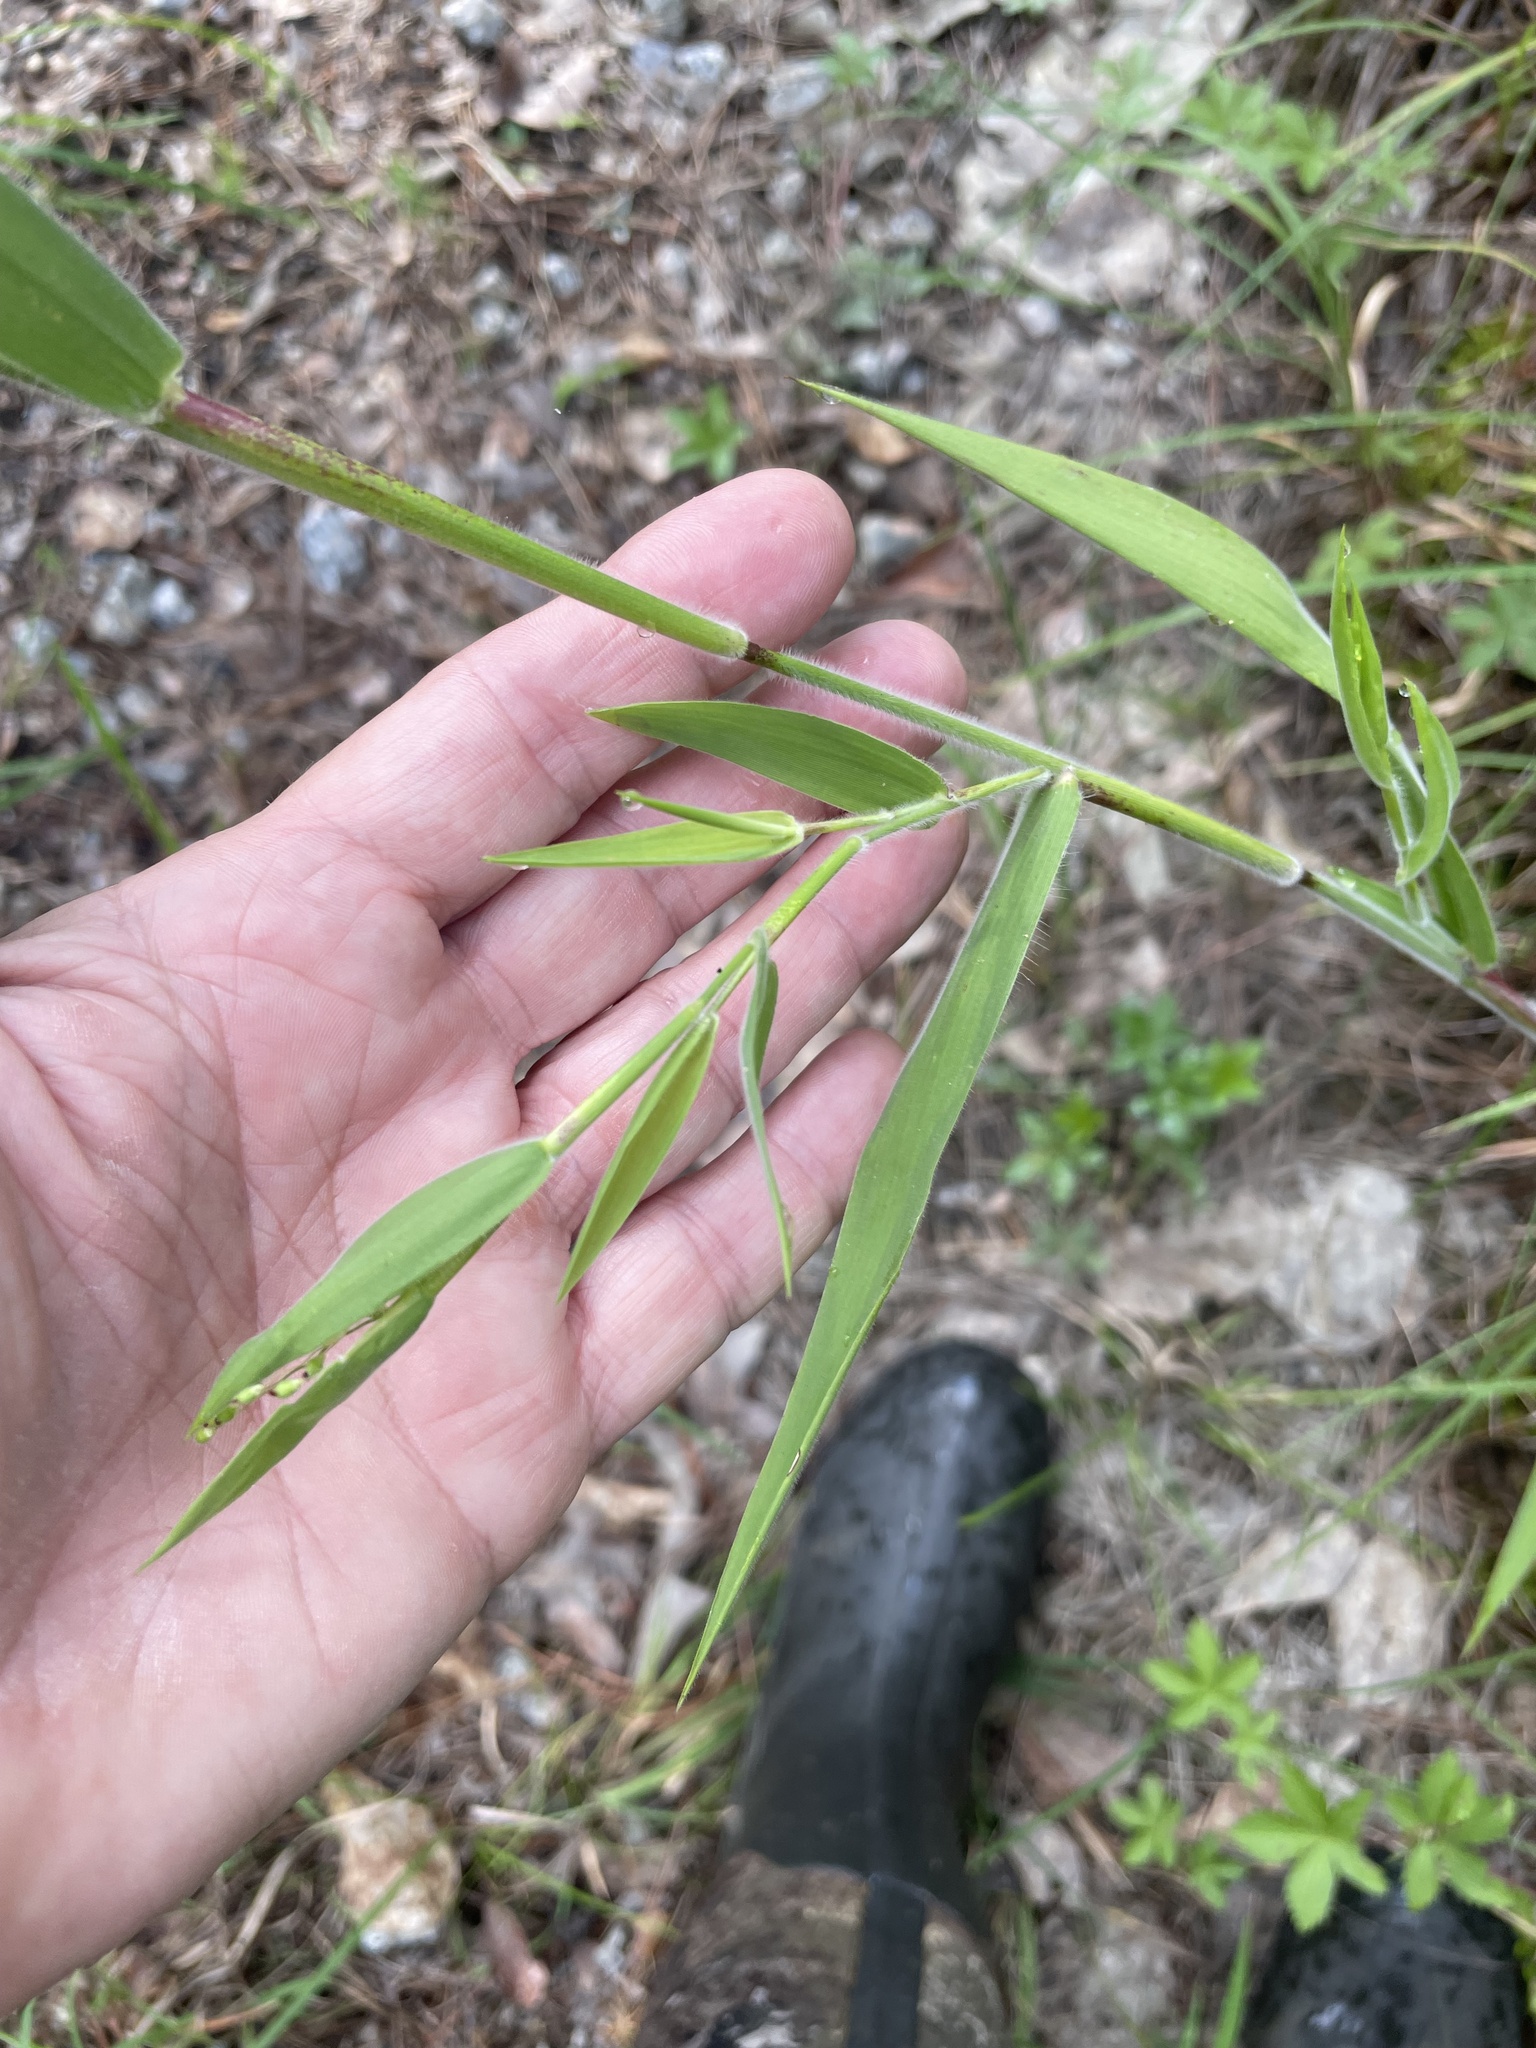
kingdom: Plantae
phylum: Tracheophyta
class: Liliopsida
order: Poales
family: Poaceae
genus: Dichanthelium
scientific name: Dichanthelium scoparium
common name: Velvety panic grass
